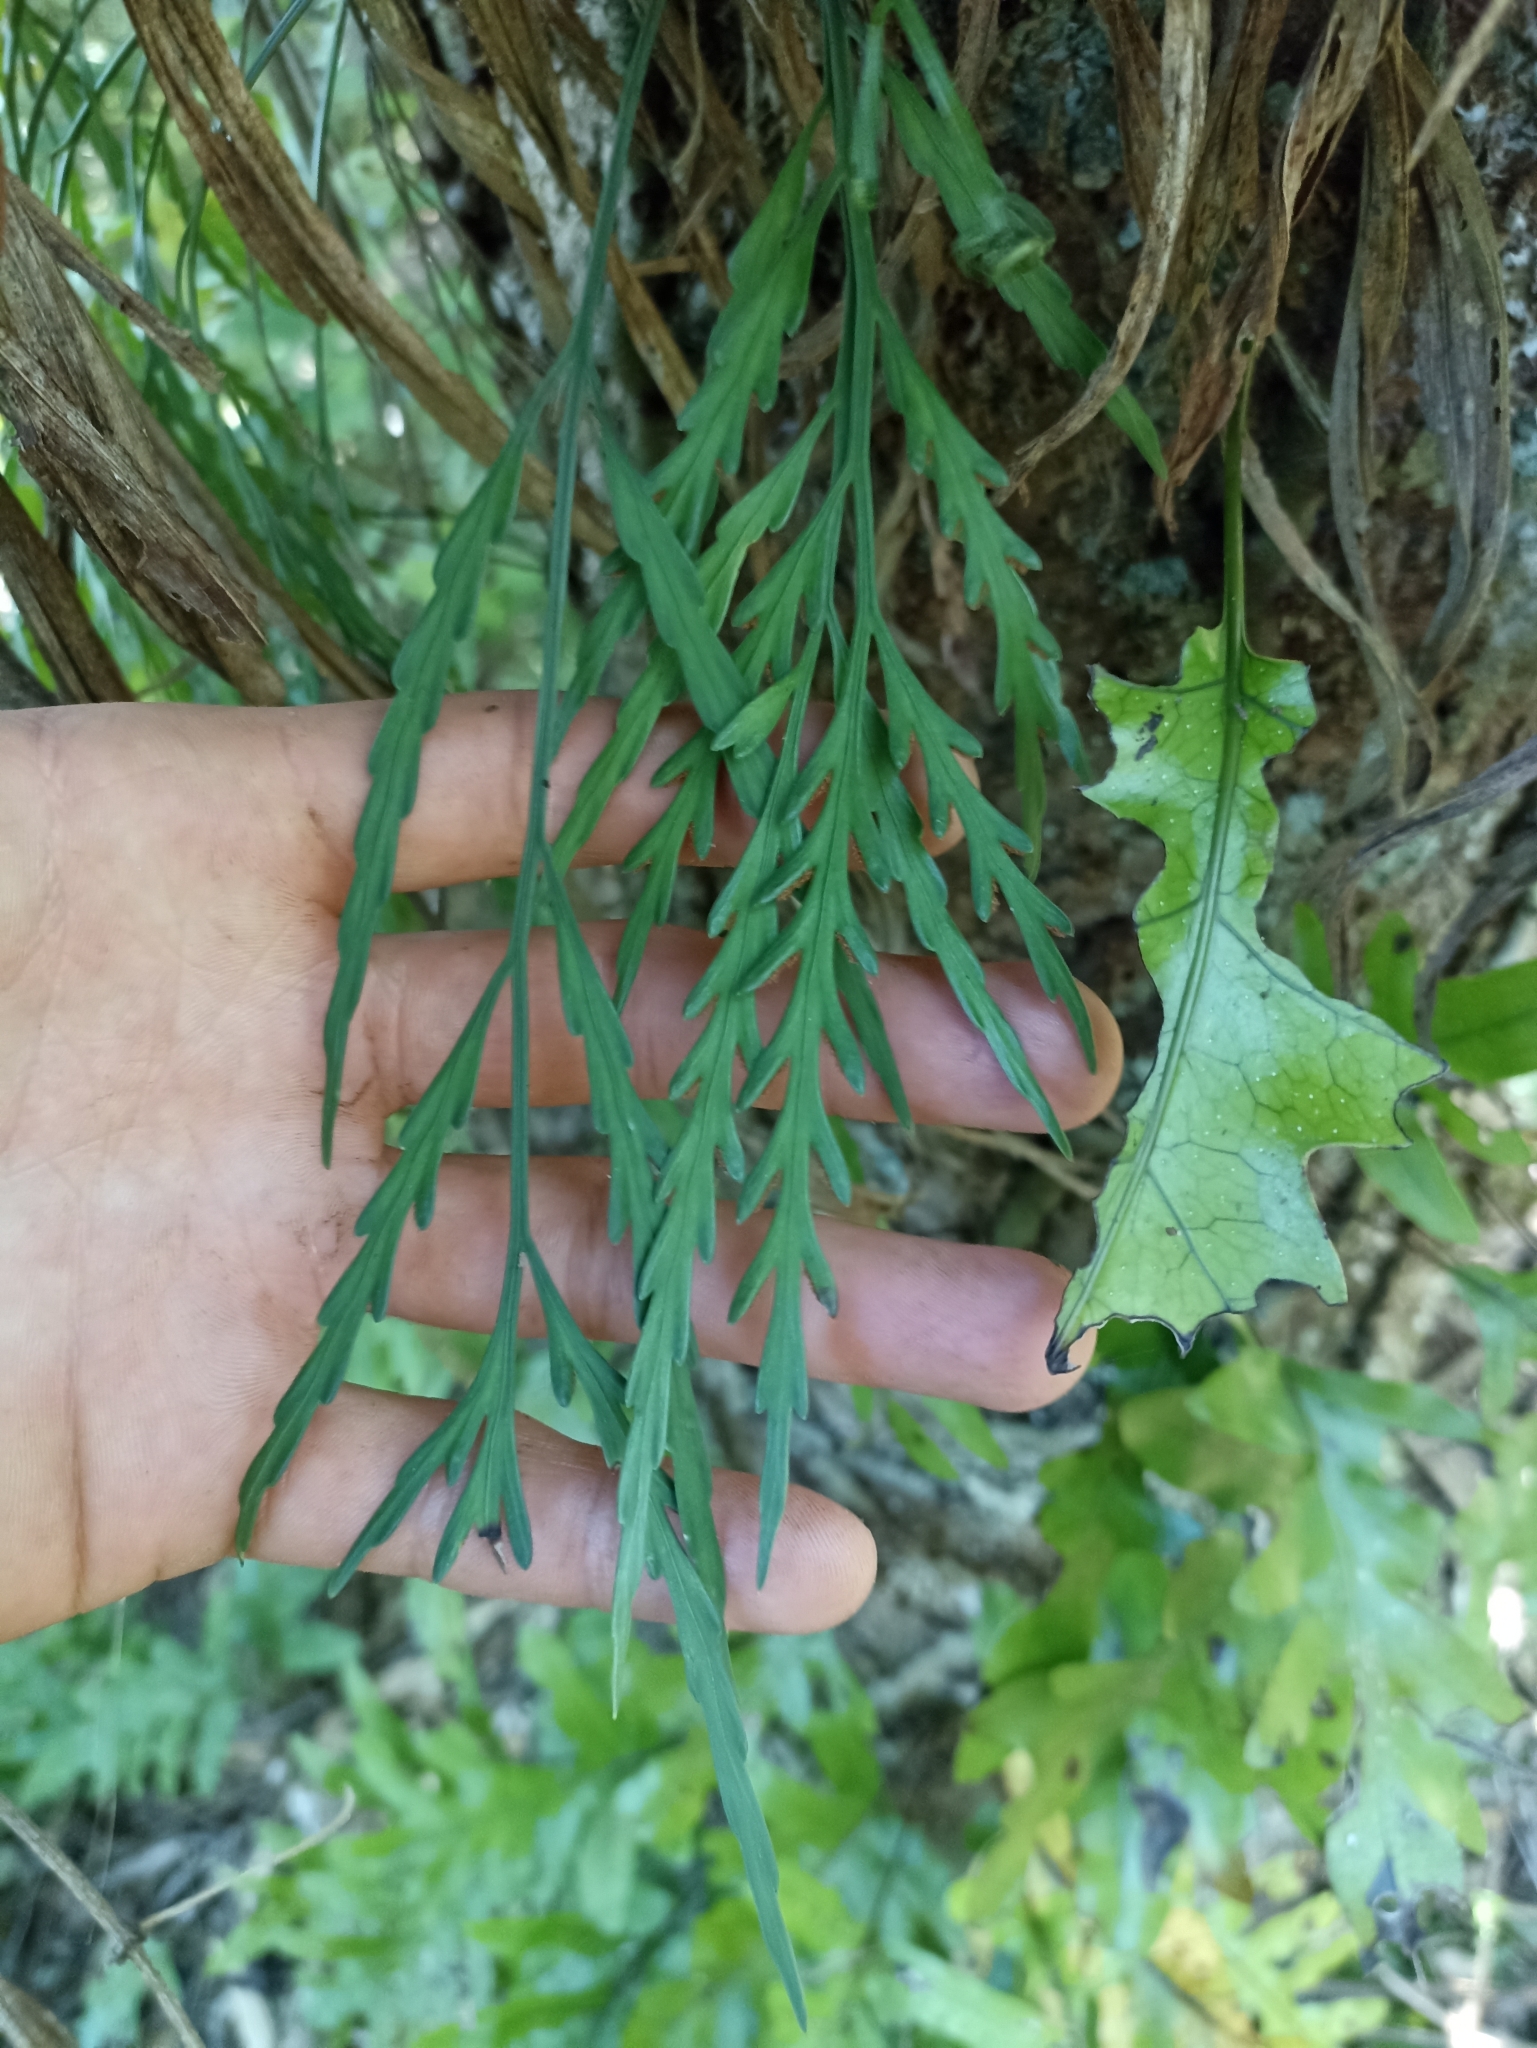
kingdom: Plantae
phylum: Tracheophyta
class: Polypodiopsida
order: Polypodiales
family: Aspleniaceae
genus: Asplenium
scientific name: Asplenium flaccidum
